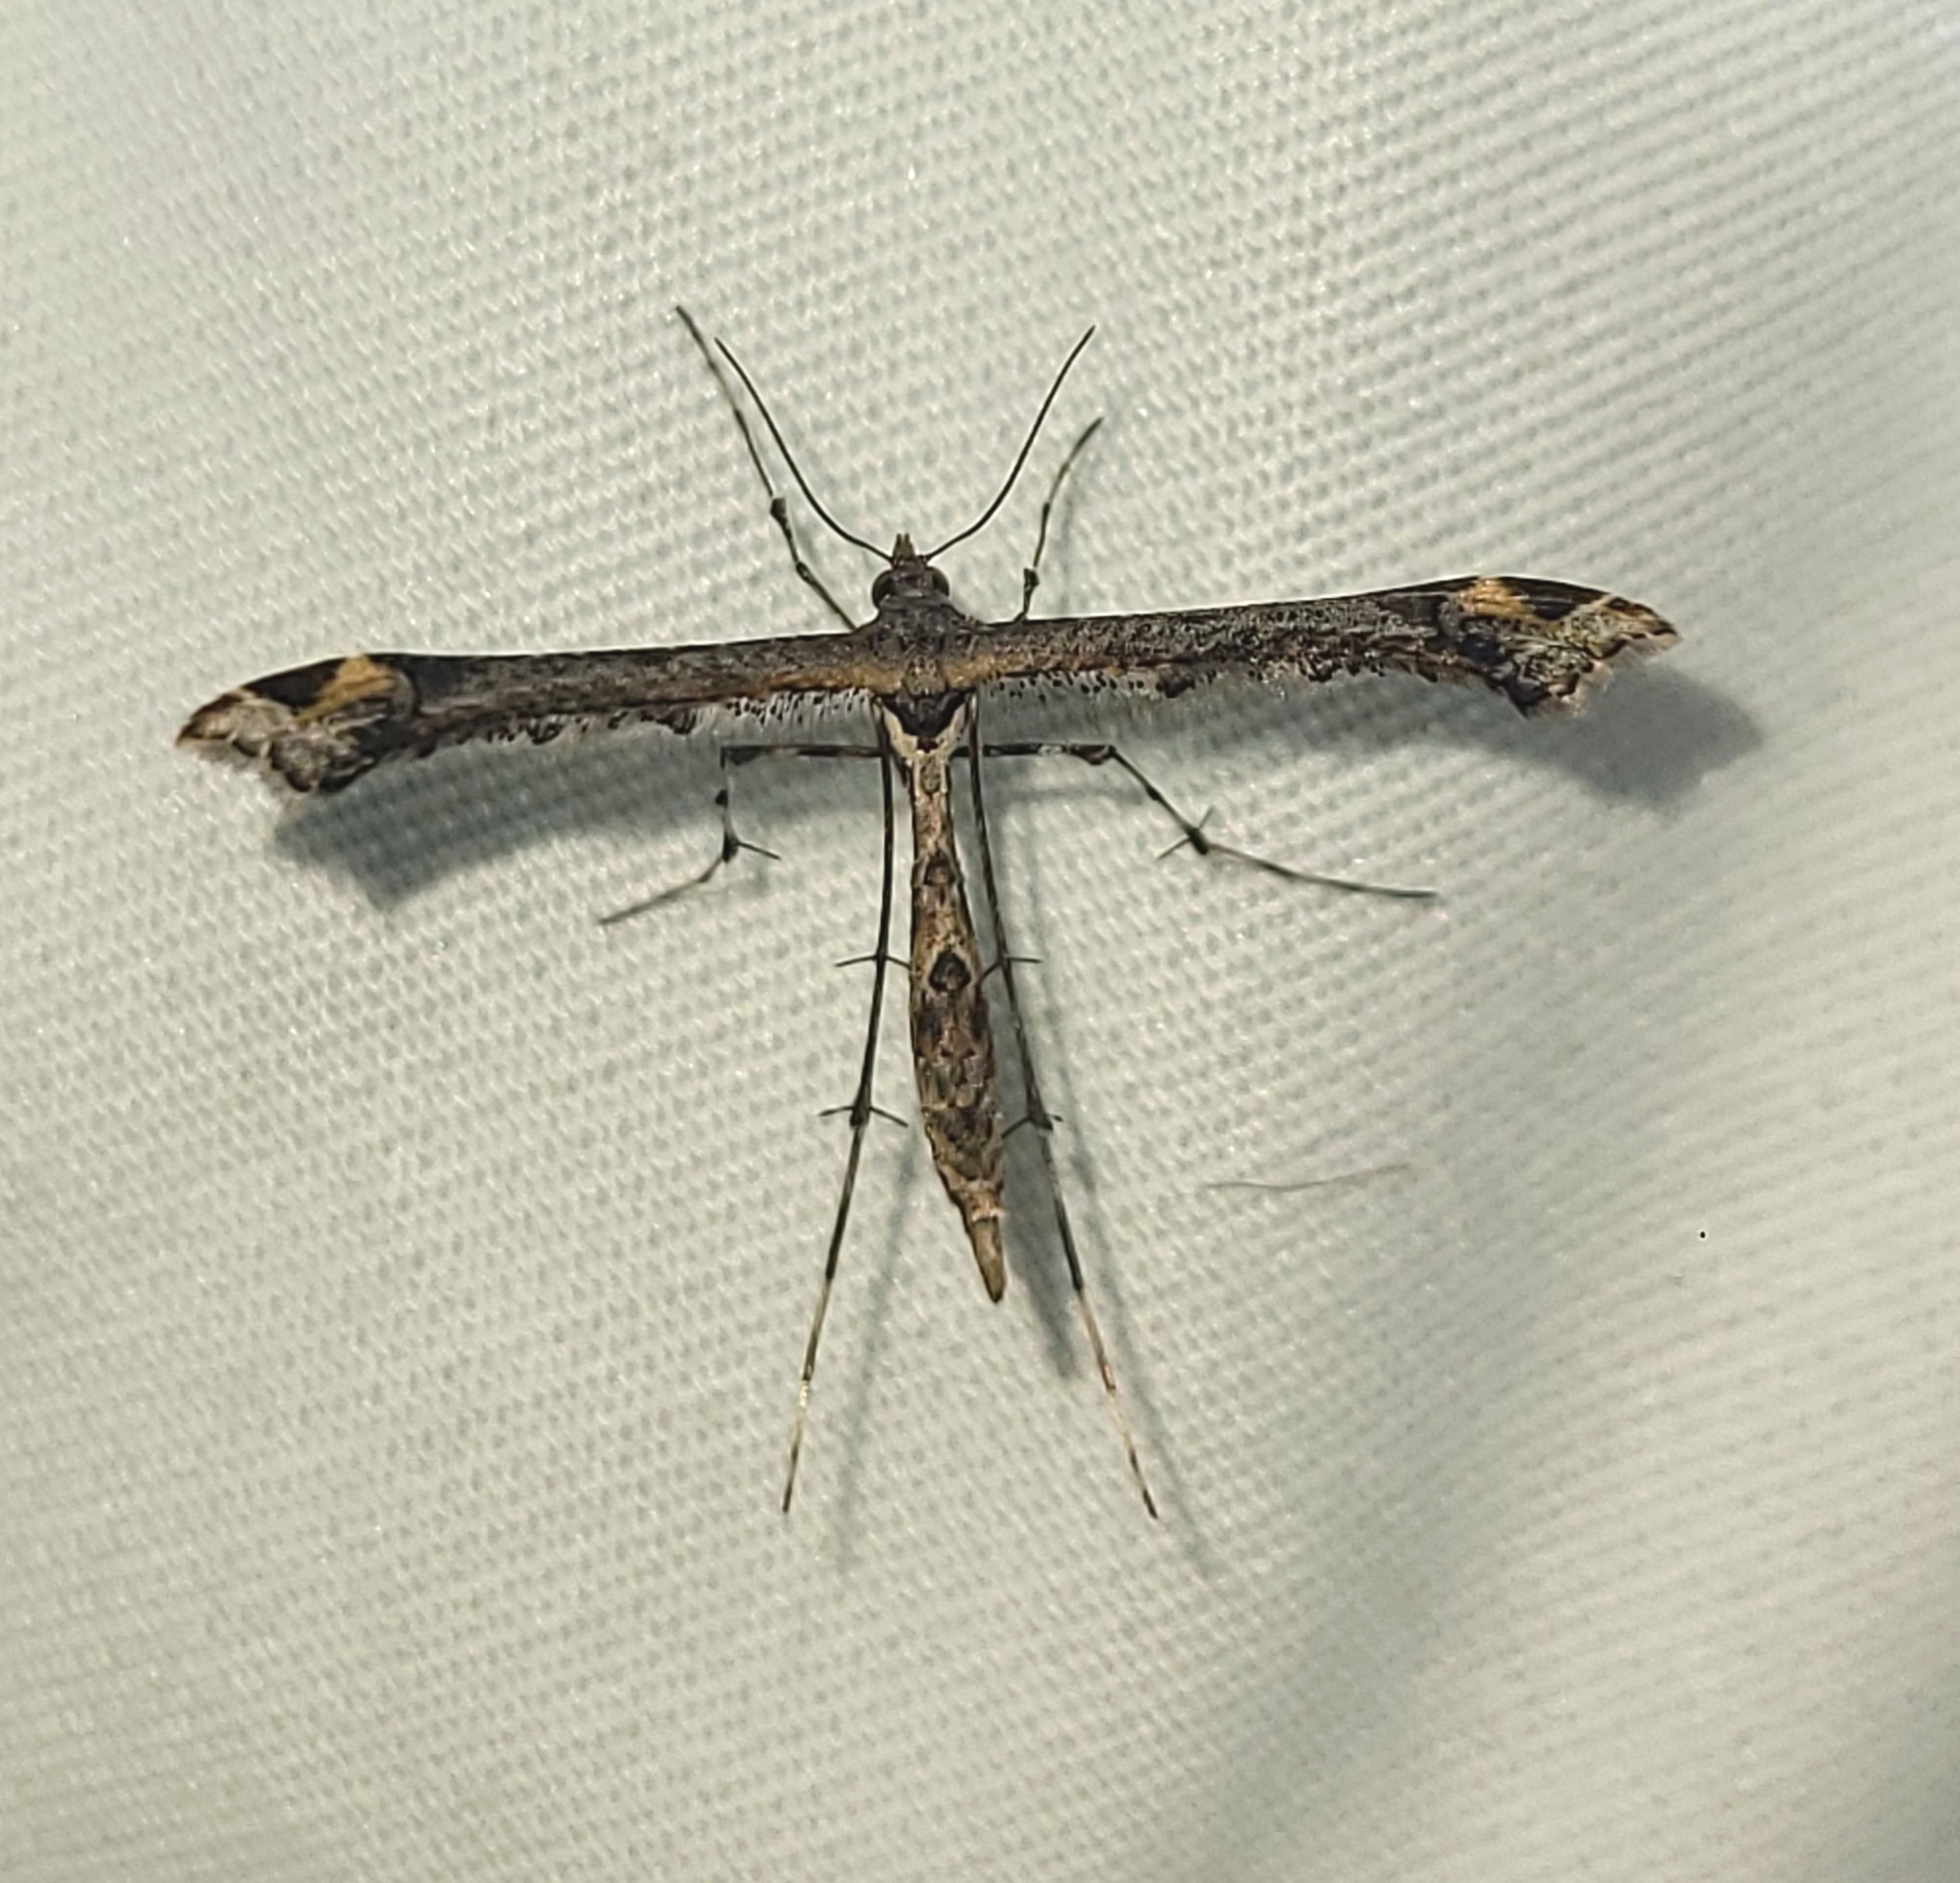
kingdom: Animalia
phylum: Arthropoda
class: Insecta
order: Lepidoptera
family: Pterophoridae
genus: Anstenoptilia
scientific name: Anstenoptilia marmarodactyla
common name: Moth
